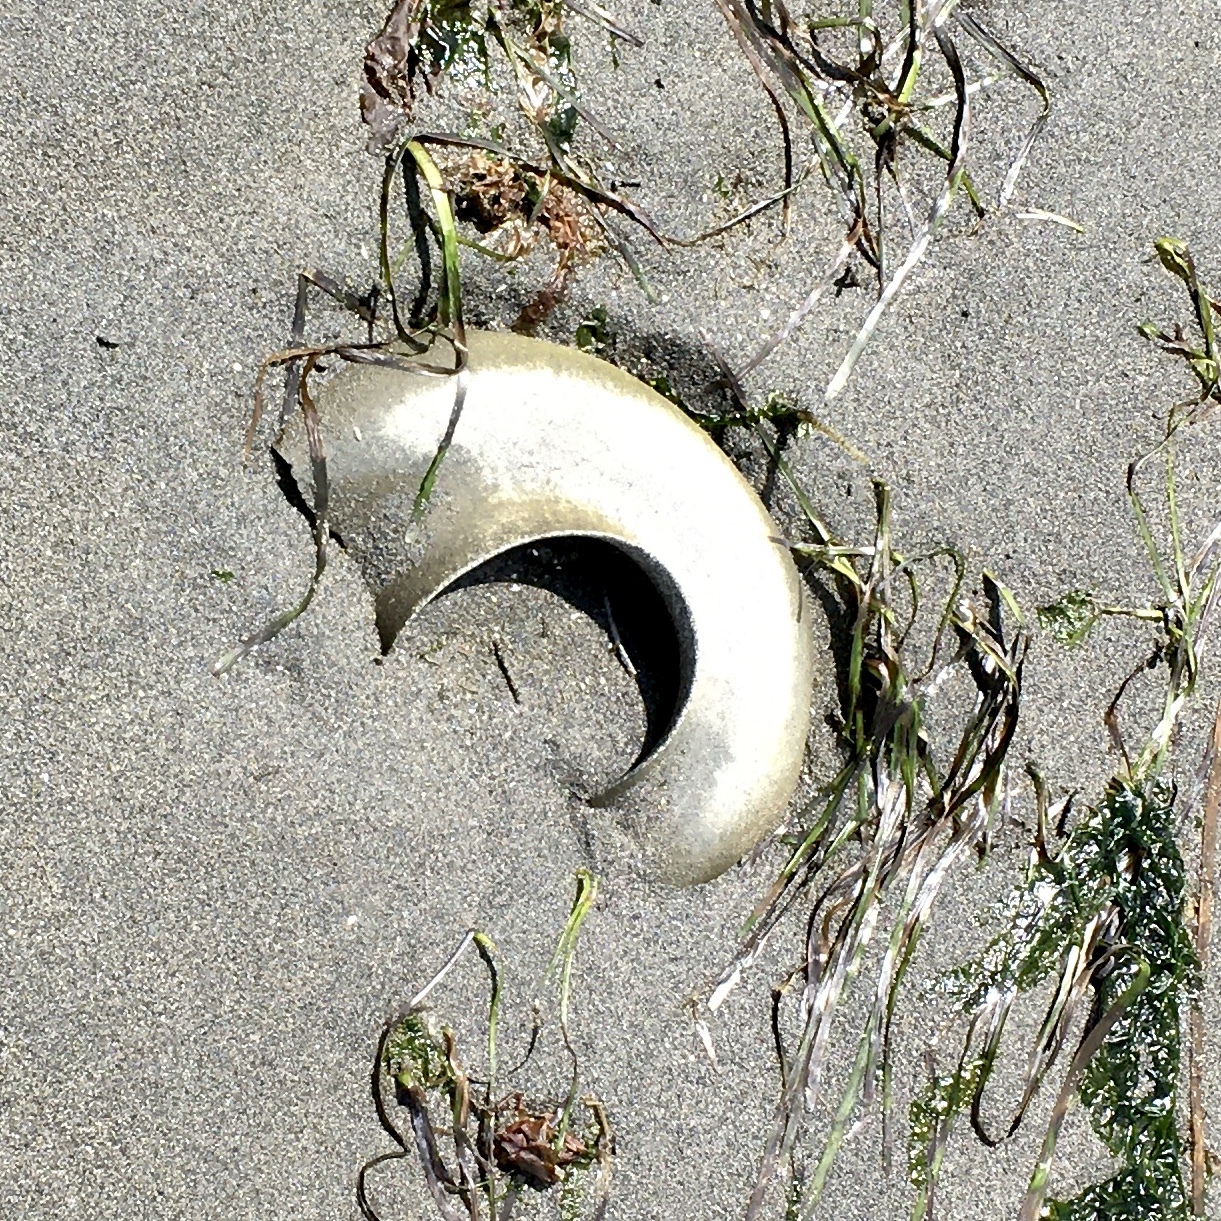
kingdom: Animalia
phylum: Mollusca
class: Gastropoda
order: Littorinimorpha
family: Naticidae
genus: Neverita
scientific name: Neverita lewisii
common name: Lewis' moonsnail
